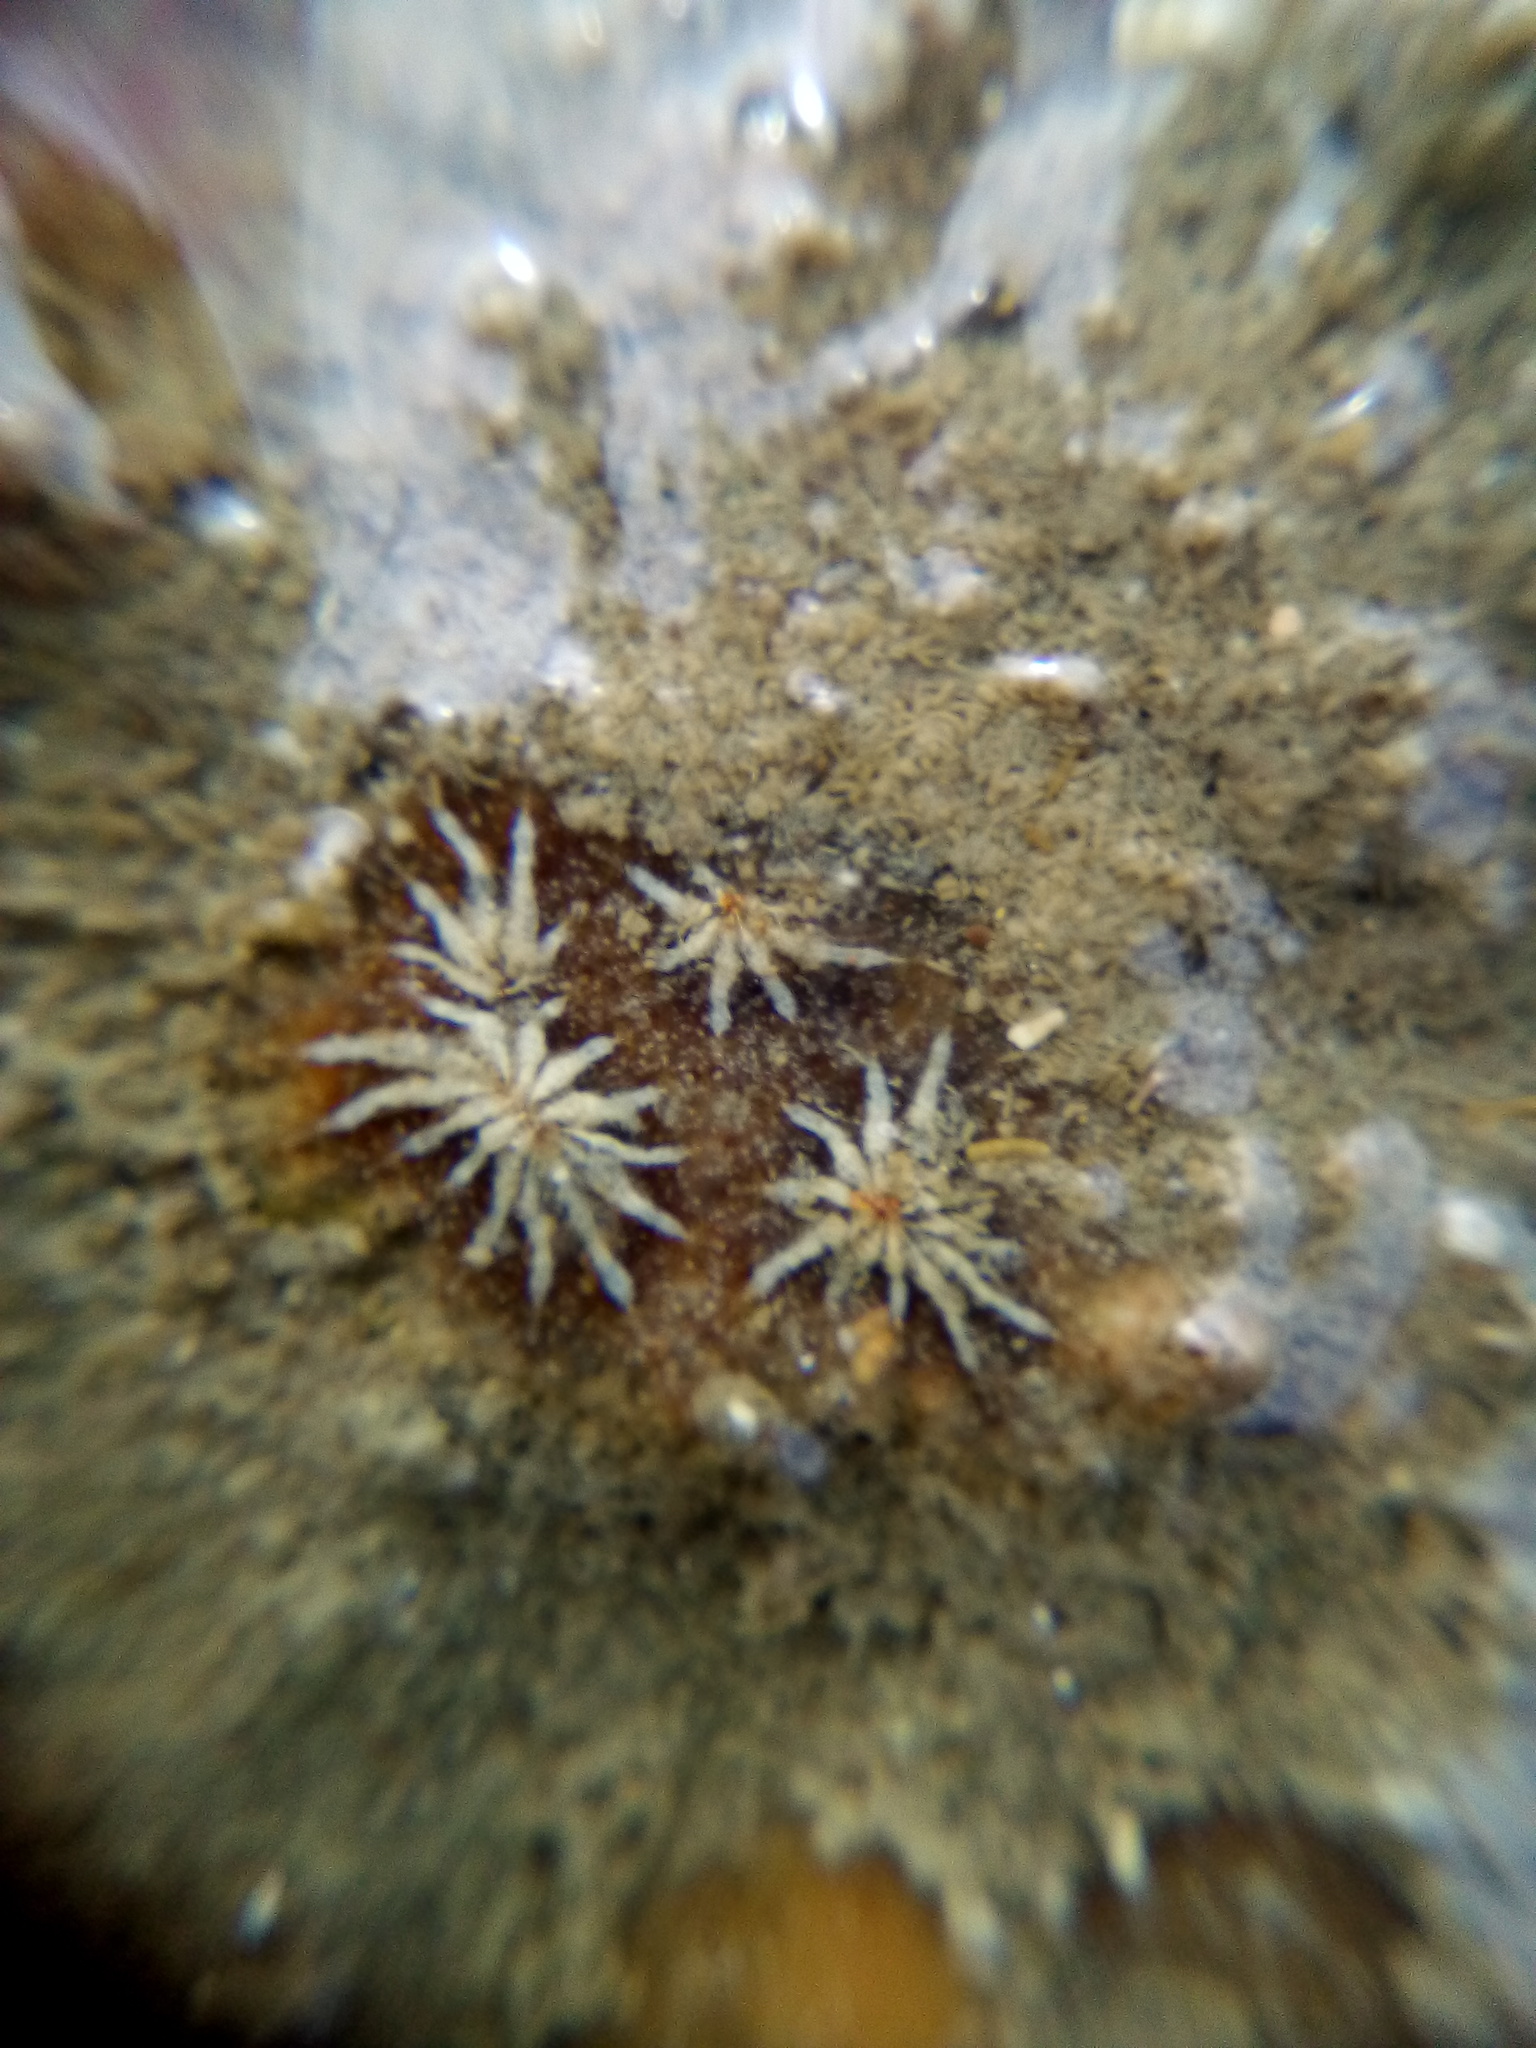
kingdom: Animalia
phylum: Chordata
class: Ascidiacea
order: Stolidobranchia
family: Styelidae
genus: Botryllus
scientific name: Botryllus schlosseri
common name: Golden star tunicate
